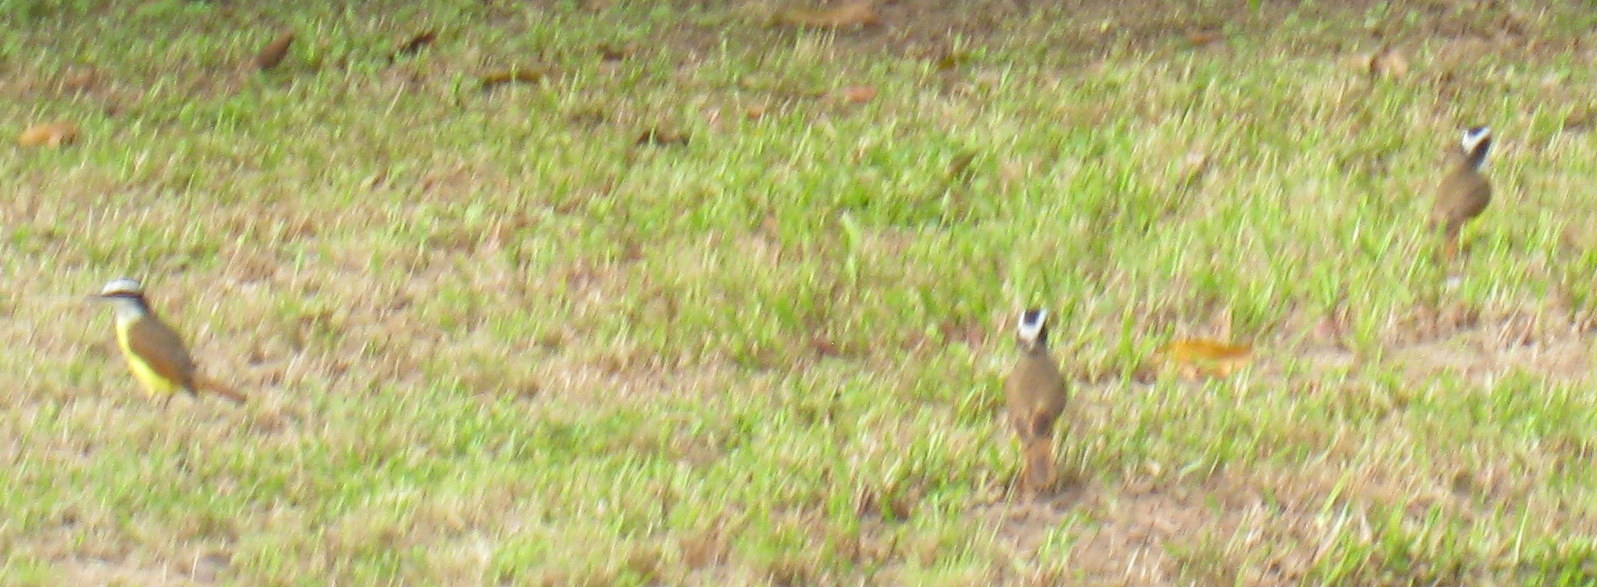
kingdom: Animalia
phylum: Chordata
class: Aves
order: Passeriformes
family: Tyrannidae
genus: Pitangus
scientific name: Pitangus sulphuratus
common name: Great kiskadee
